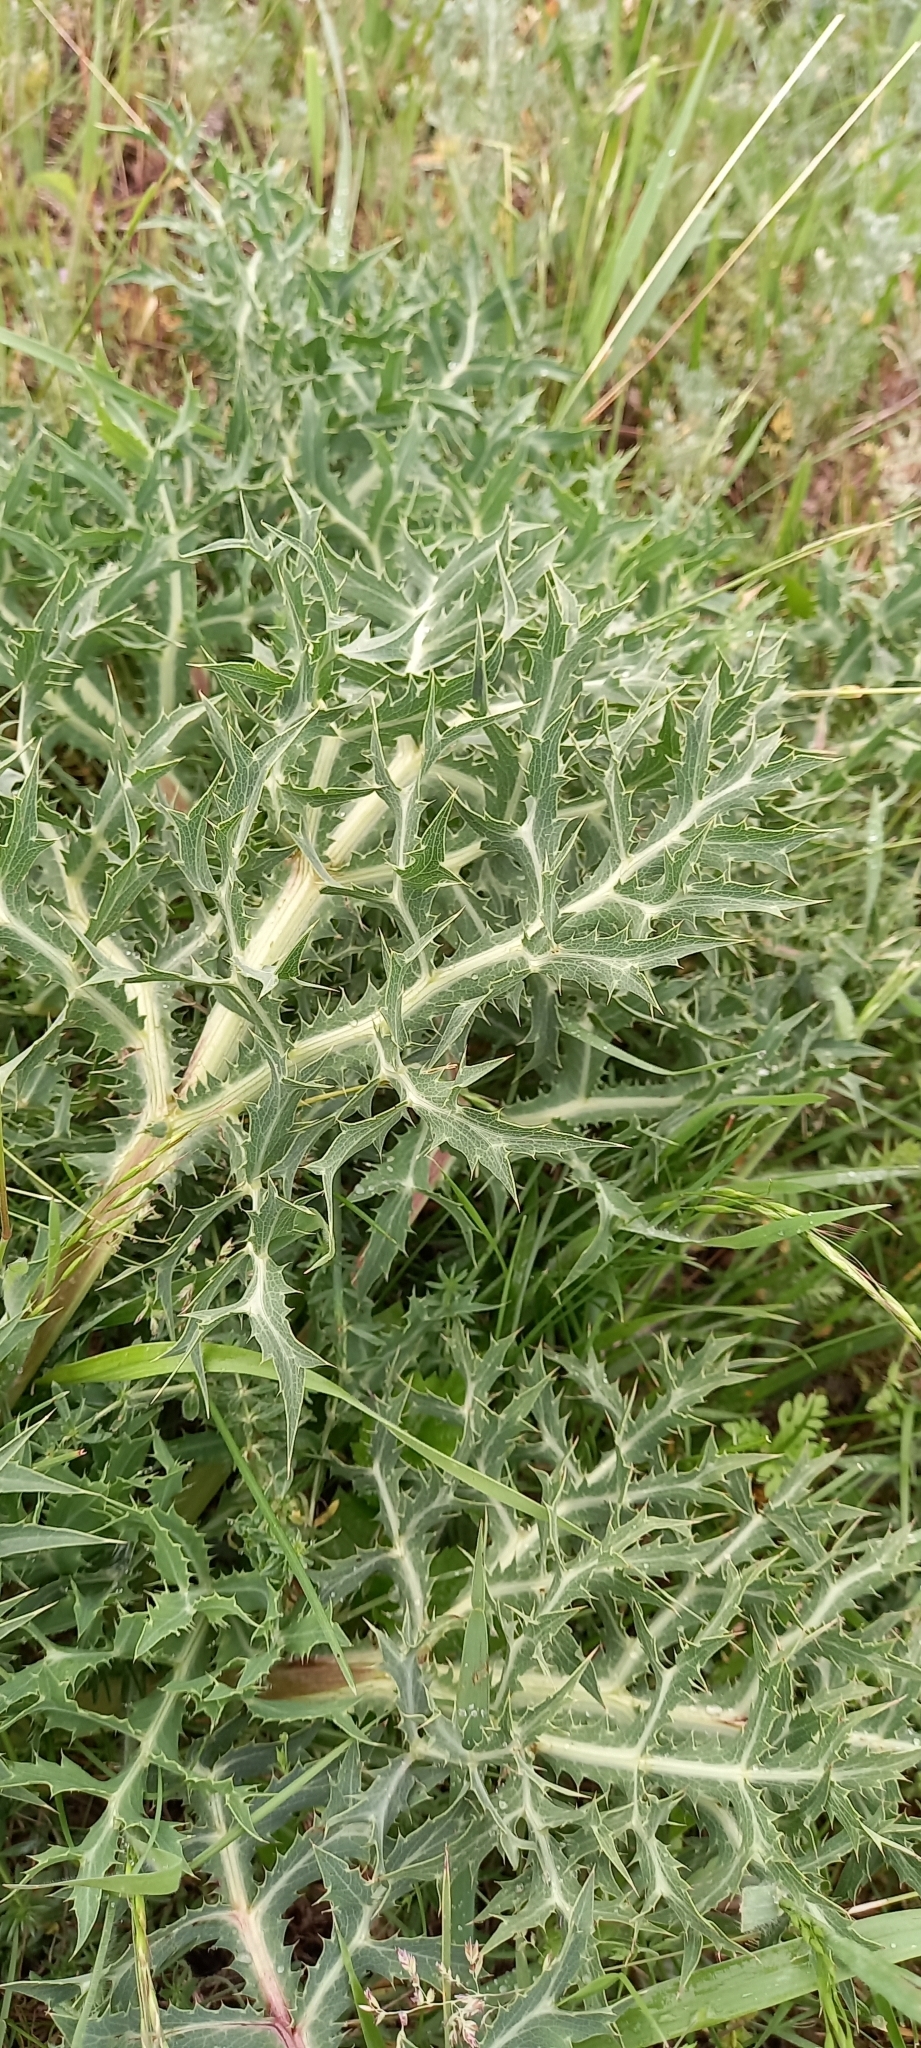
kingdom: Plantae
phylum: Tracheophyta
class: Magnoliopsida
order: Apiales
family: Apiaceae
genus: Eryngium
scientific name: Eryngium campestre
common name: Field eryngo
